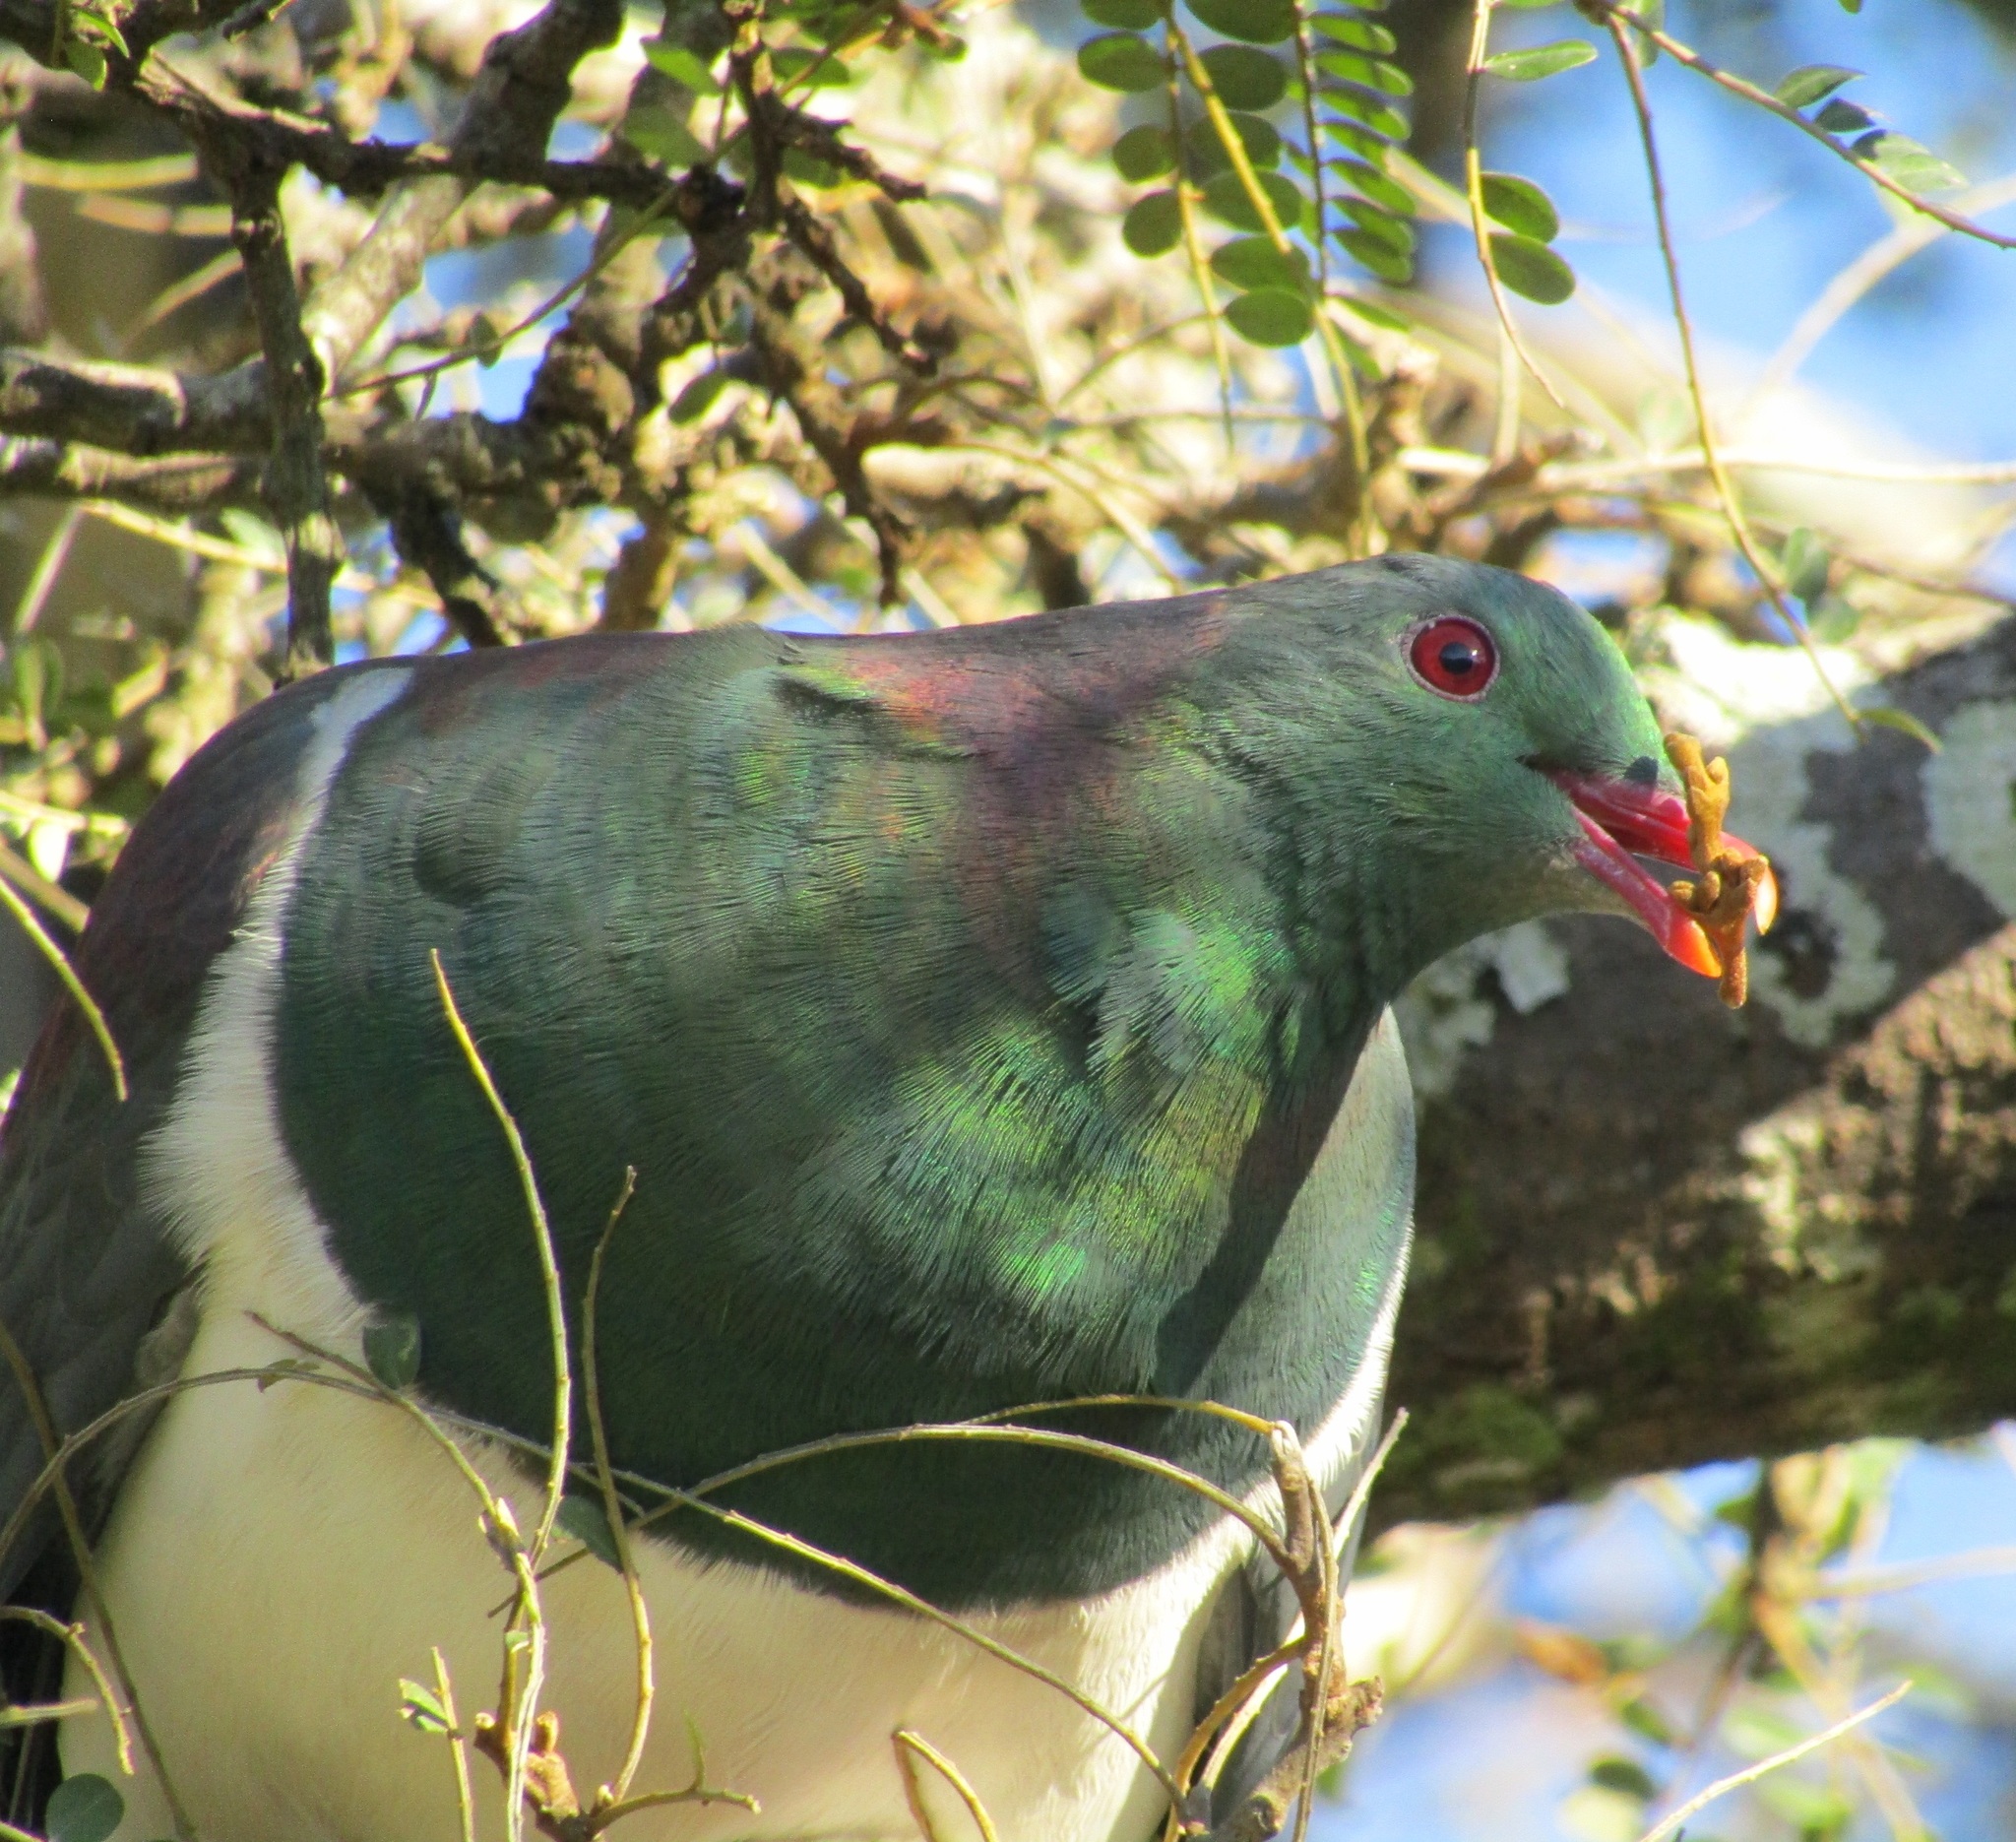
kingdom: Animalia
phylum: Chordata
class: Aves
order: Columbiformes
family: Columbidae
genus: Hemiphaga
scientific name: Hemiphaga novaeseelandiae
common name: New zealand pigeon
